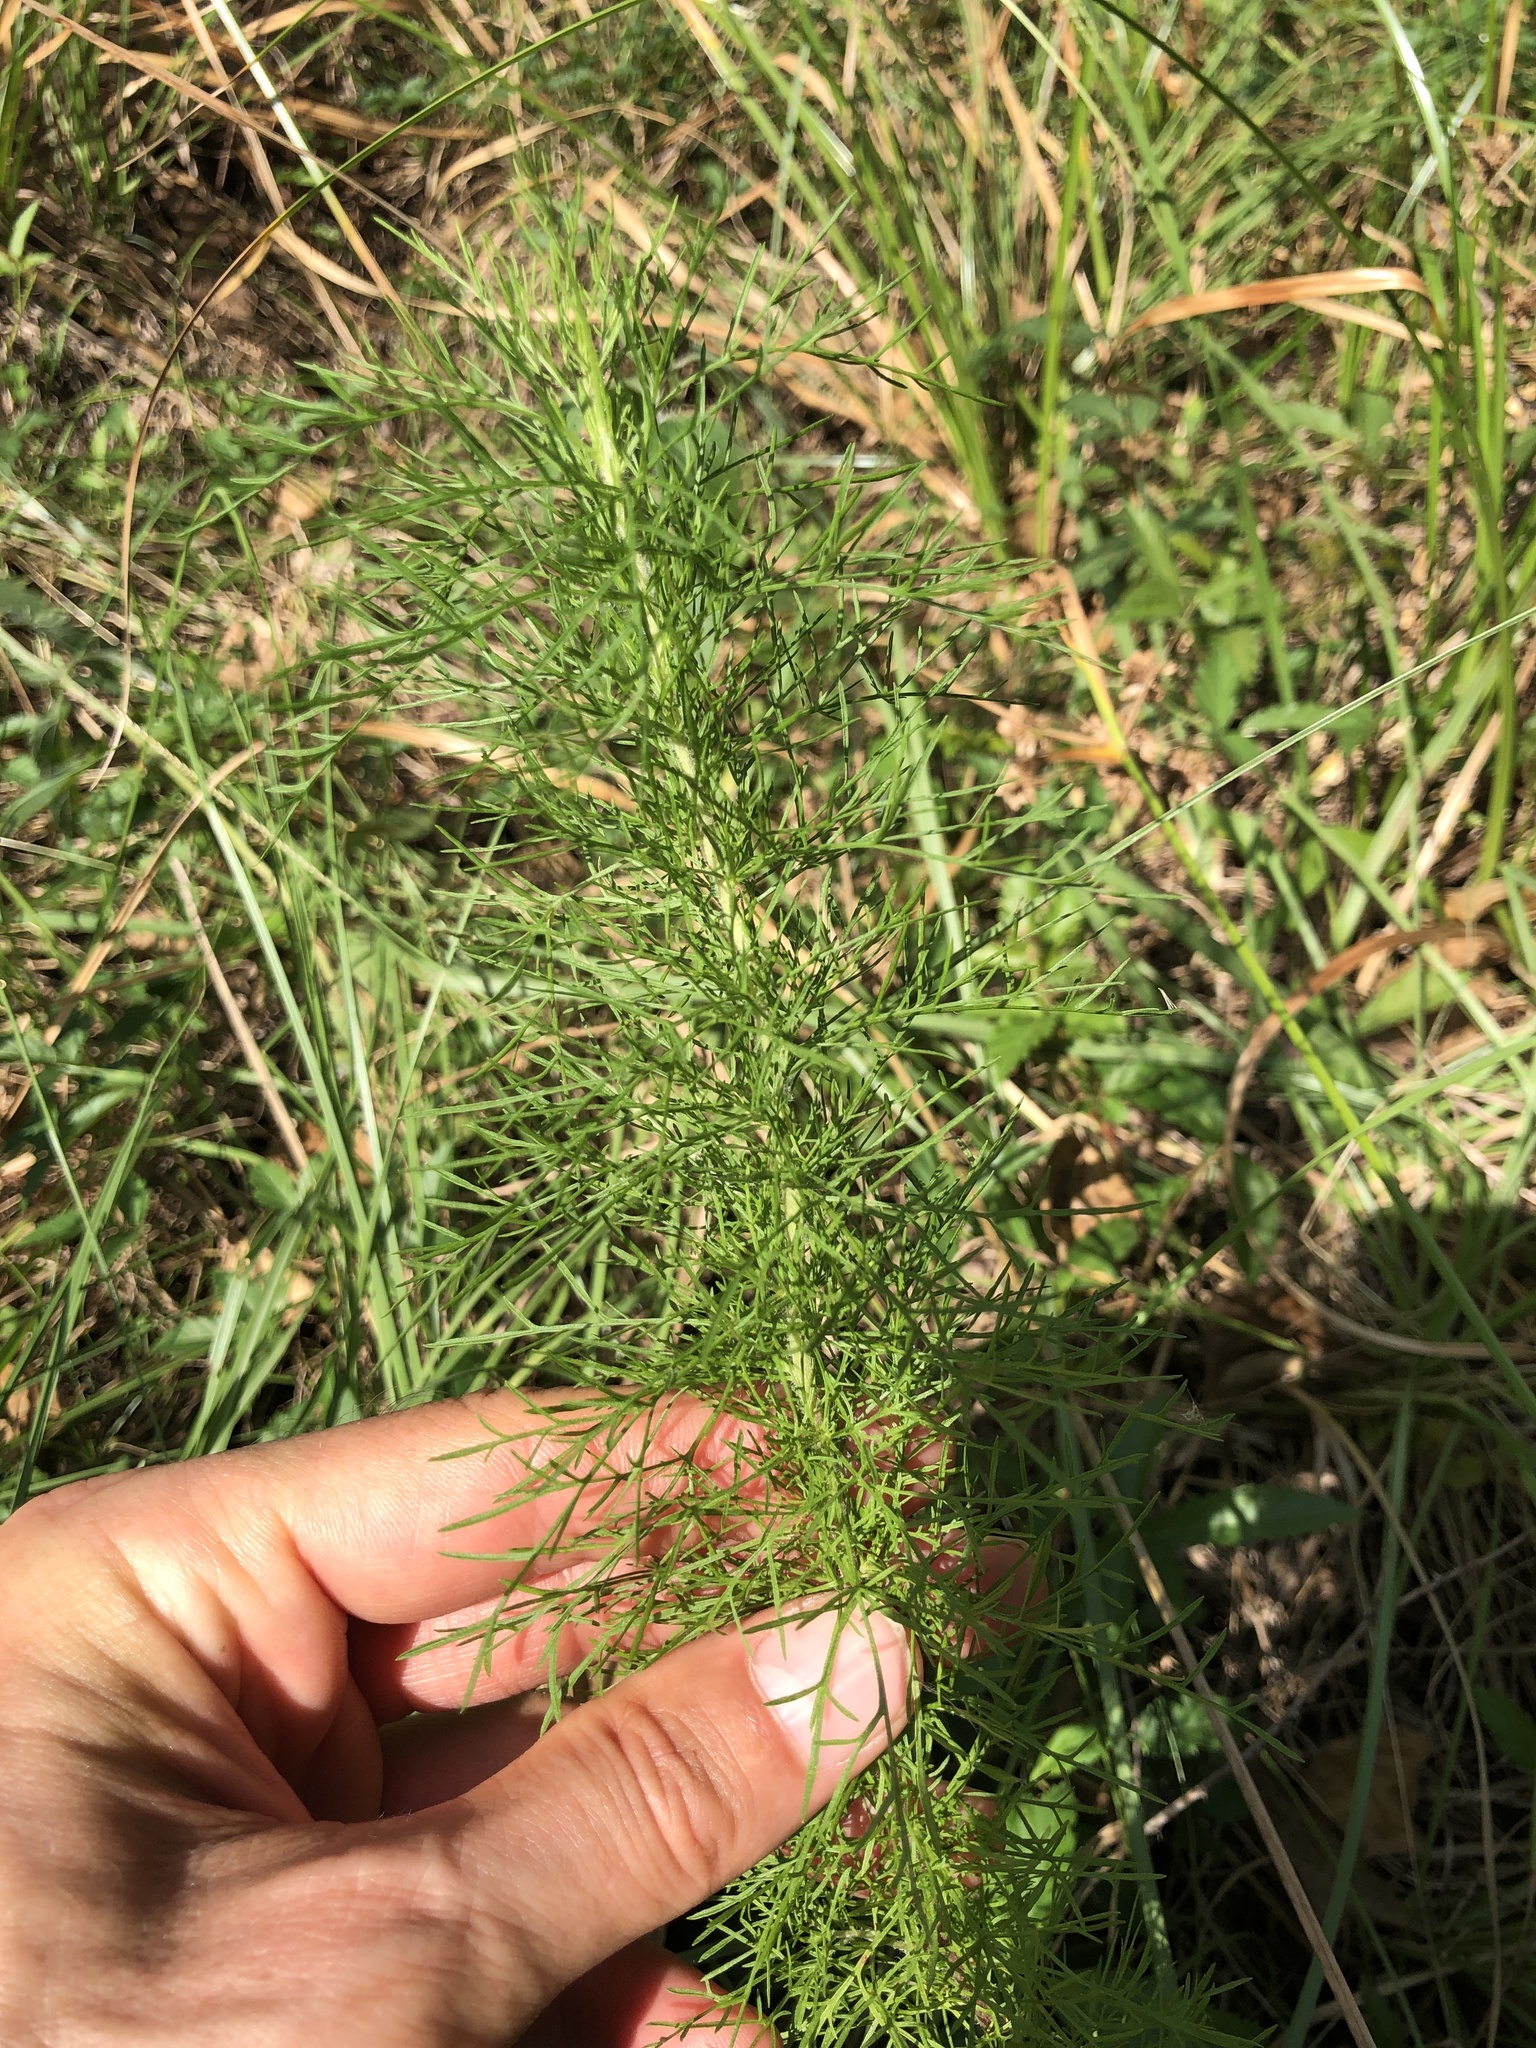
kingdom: Plantae
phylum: Tracheophyta
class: Magnoliopsida
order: Asterales
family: Asteraceae
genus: Eupatorium
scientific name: Eupatorium capillifolium
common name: Dog-fennel
